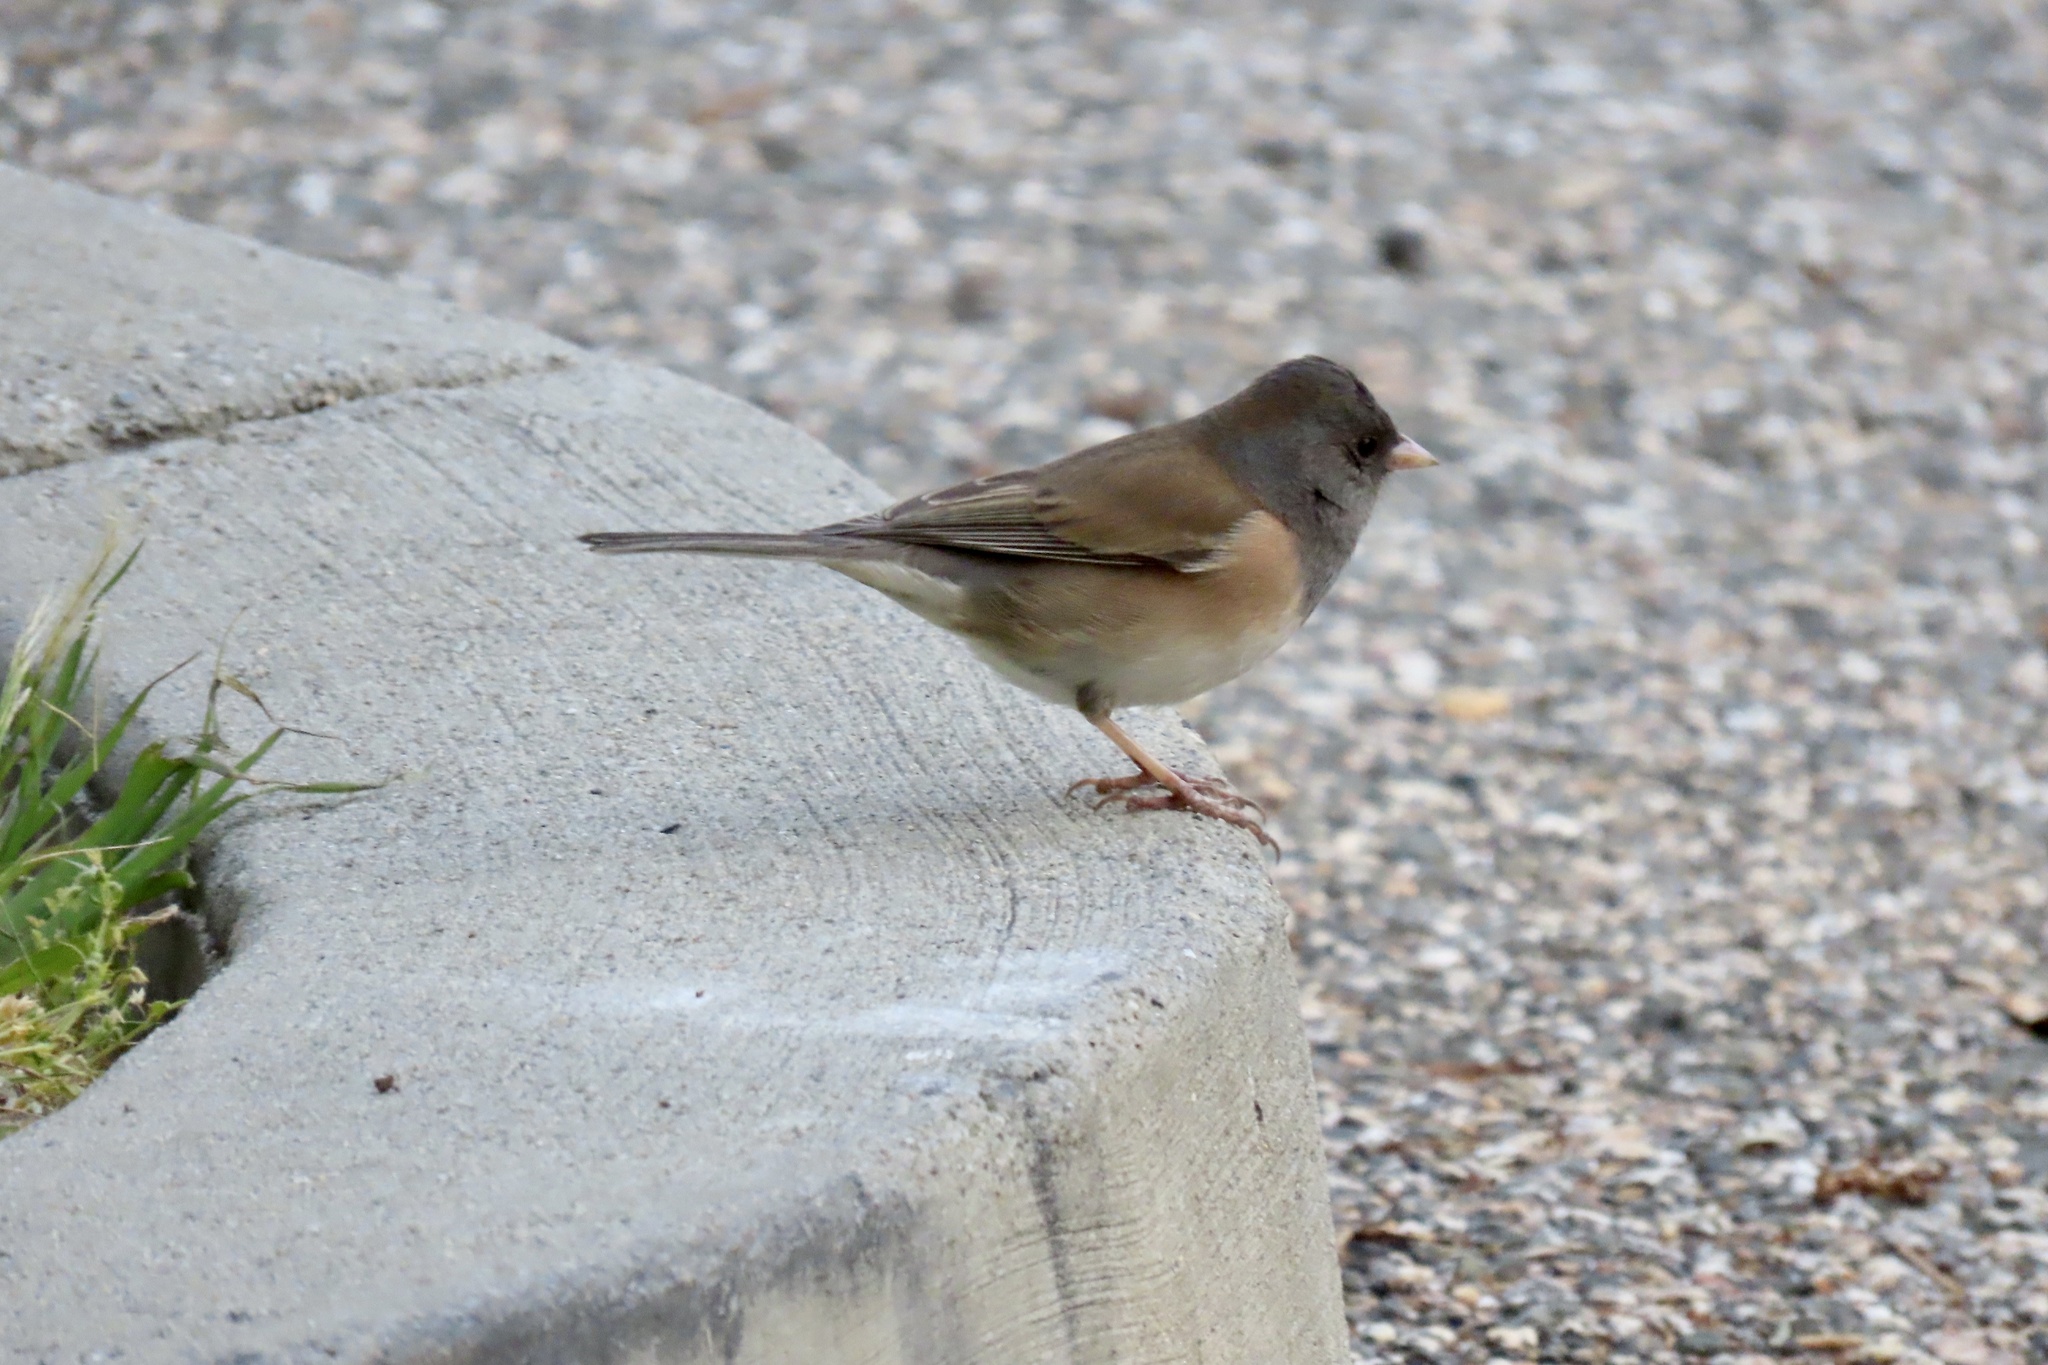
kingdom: Animalia
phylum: Chordata
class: Aves
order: Passeriformes
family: Passerellidae
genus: Junco
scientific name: Junco hyemalis
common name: Dark-eyed junco
